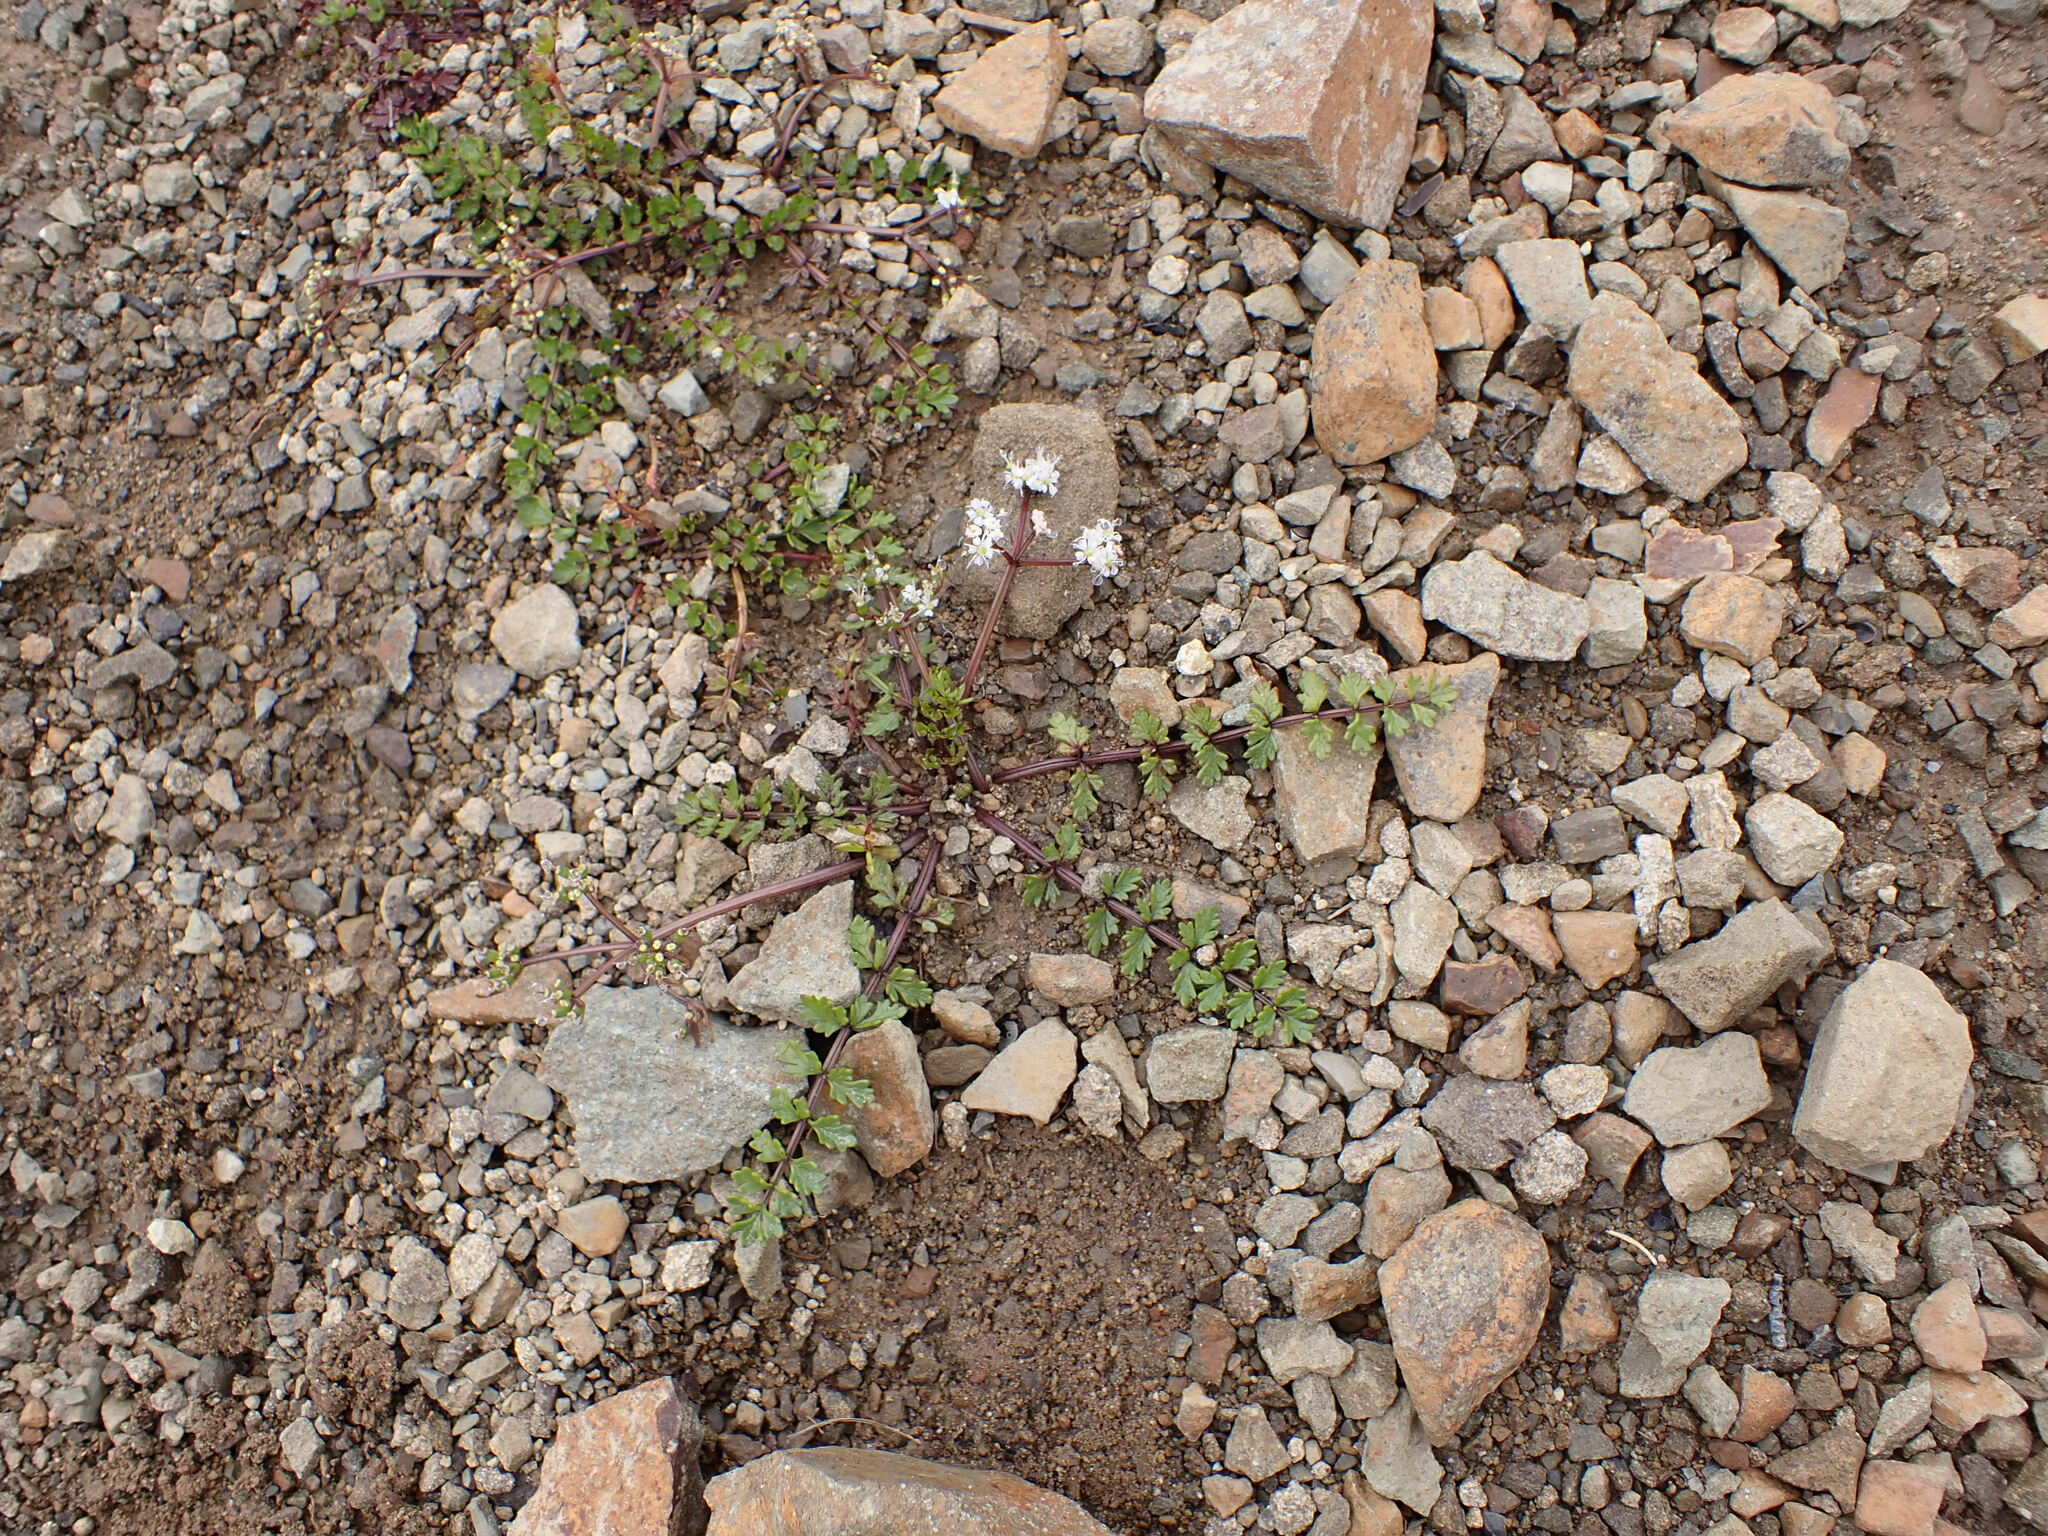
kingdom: Plantae
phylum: Tracheophyta
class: Magnoliopsida
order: Apiales
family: Apiaceae
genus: Gingidia
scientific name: Gingidia decipiens
